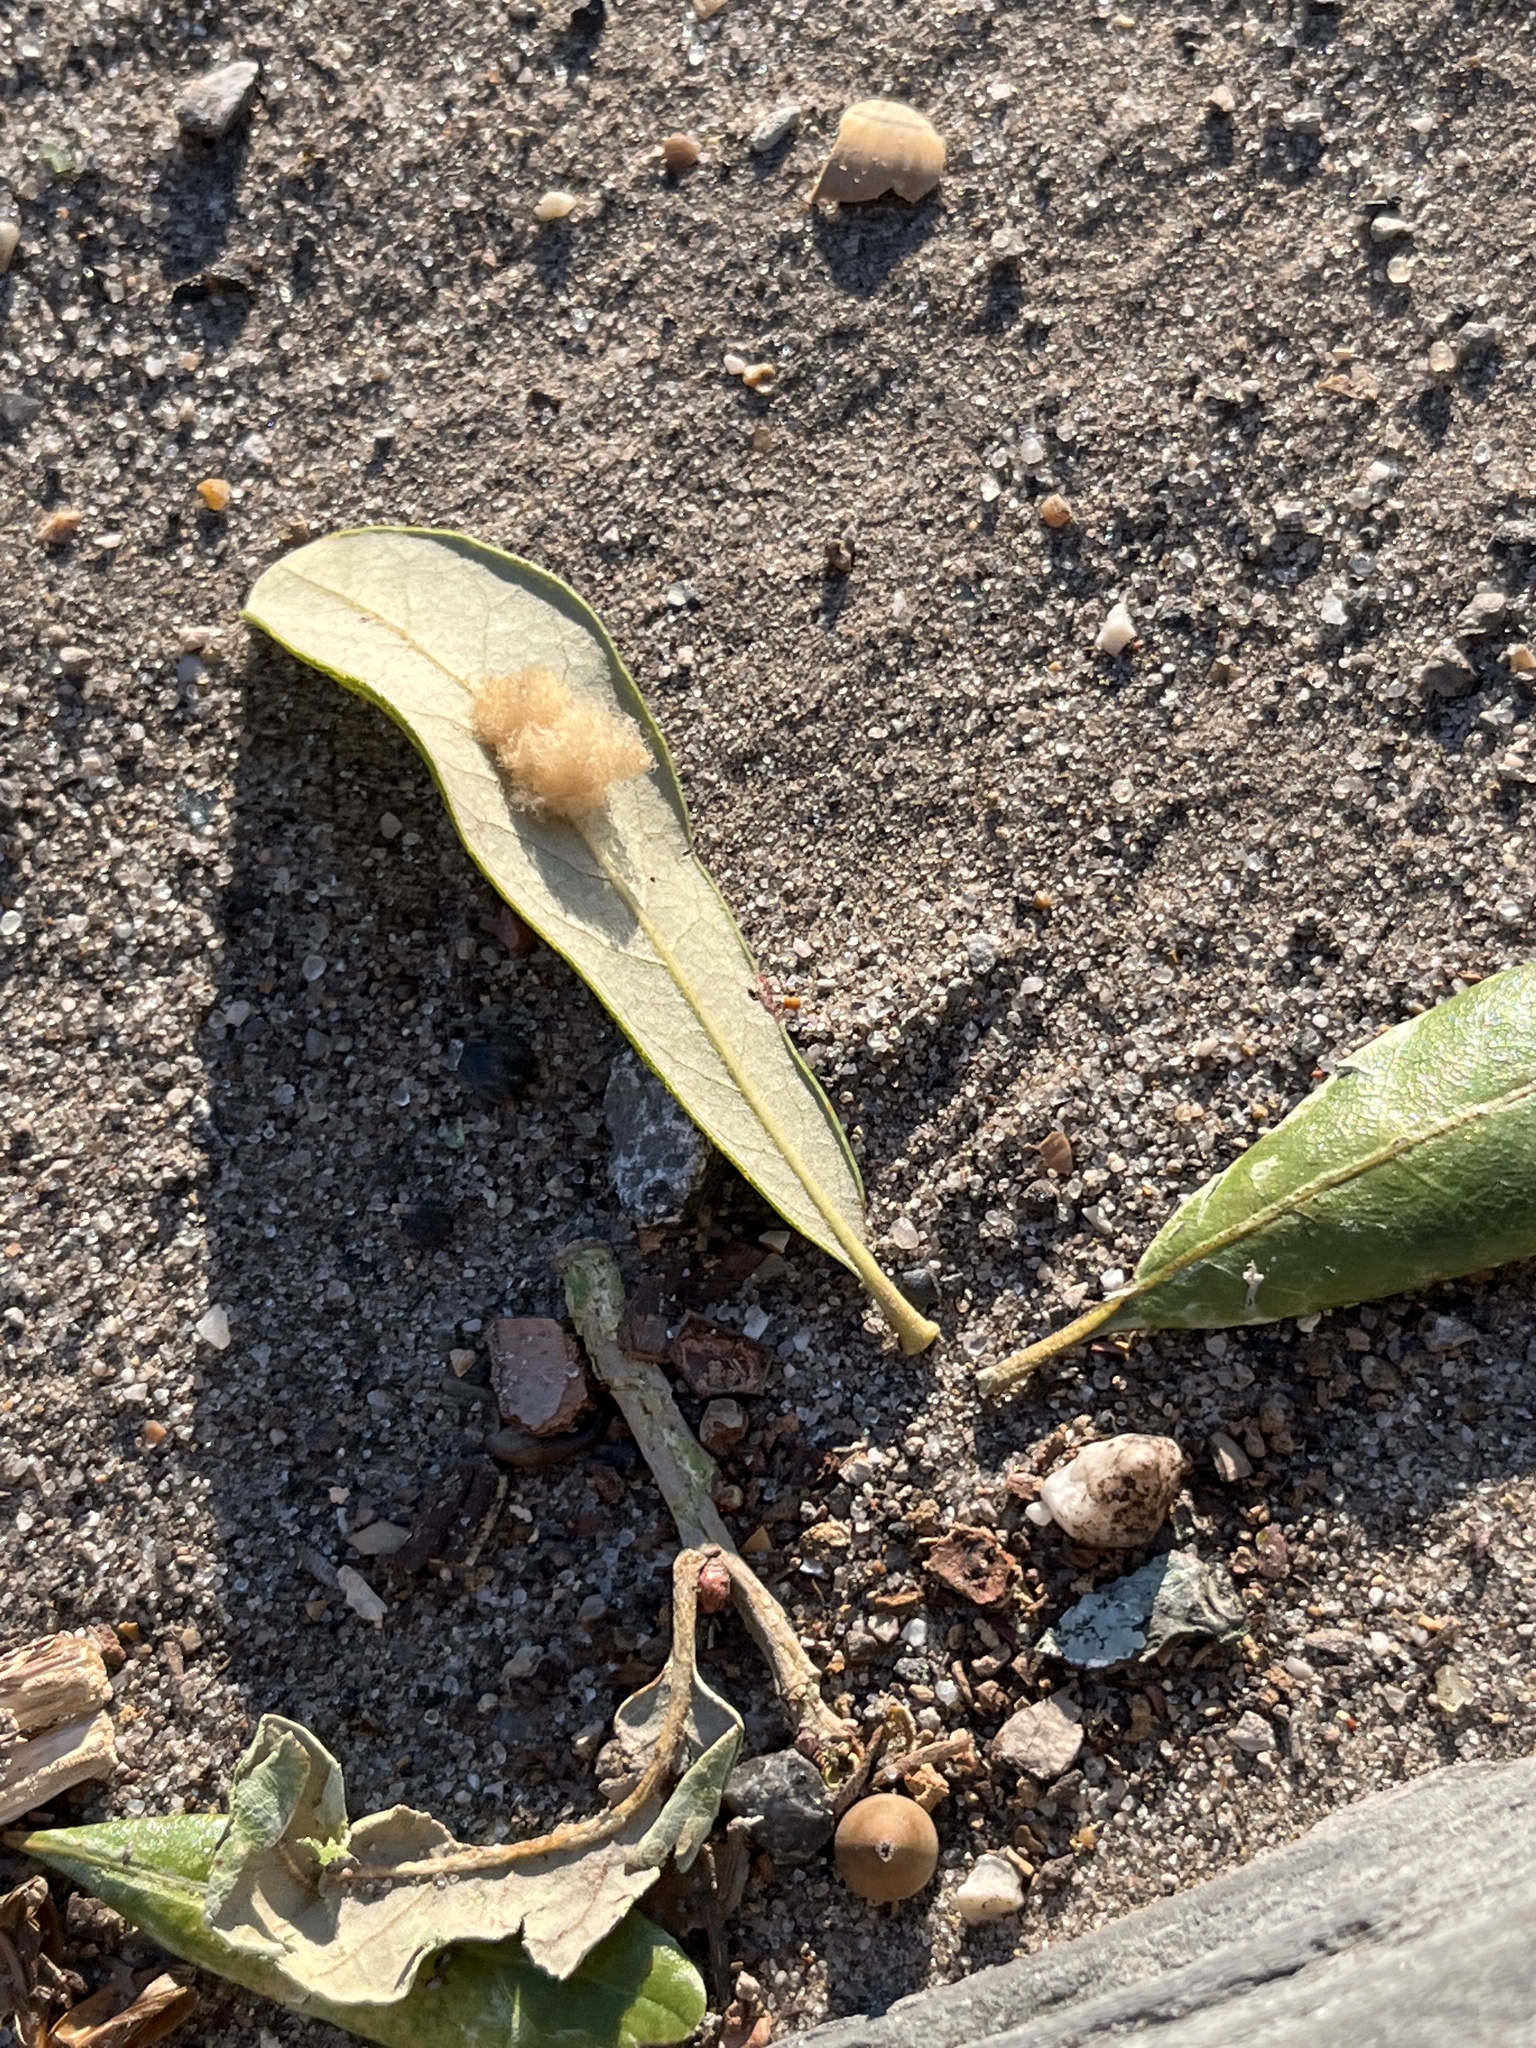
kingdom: Animalia
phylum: Arthropoda
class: Insecta
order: Hymenoptera
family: Cynipidae
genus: Andricus
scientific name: Andricus Druon quercuslanigerum
